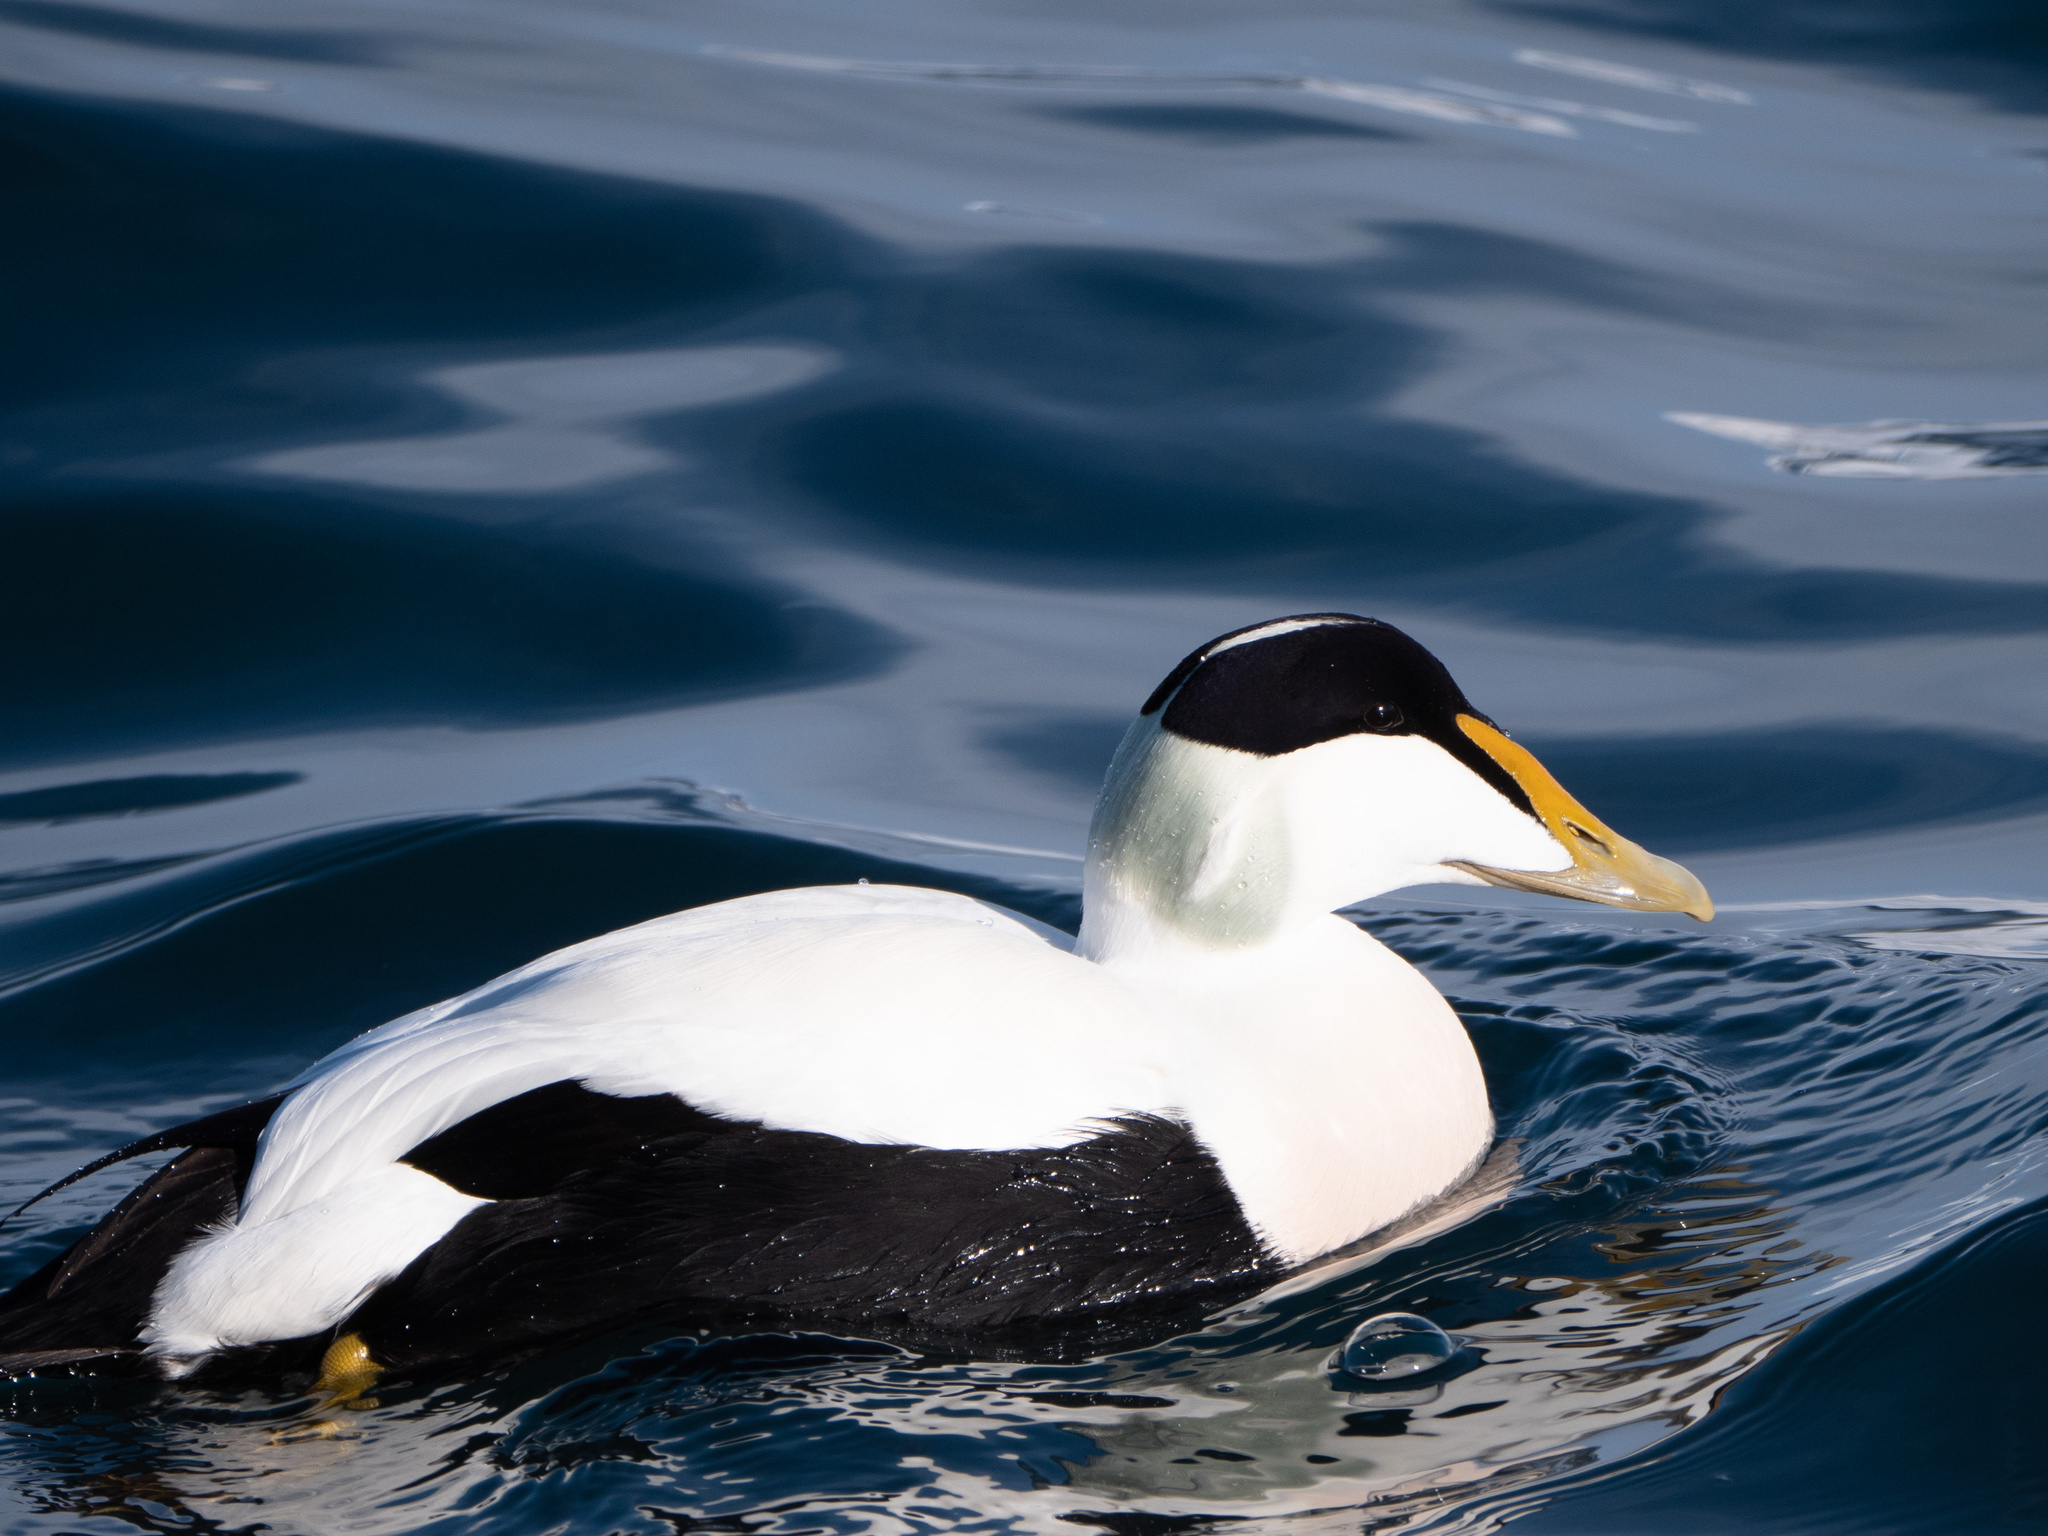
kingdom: Animalia
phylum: Chordata
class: Aves
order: Anseriformes
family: Anatidae
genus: Somateria
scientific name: Somateria mollissima
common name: Common eider
